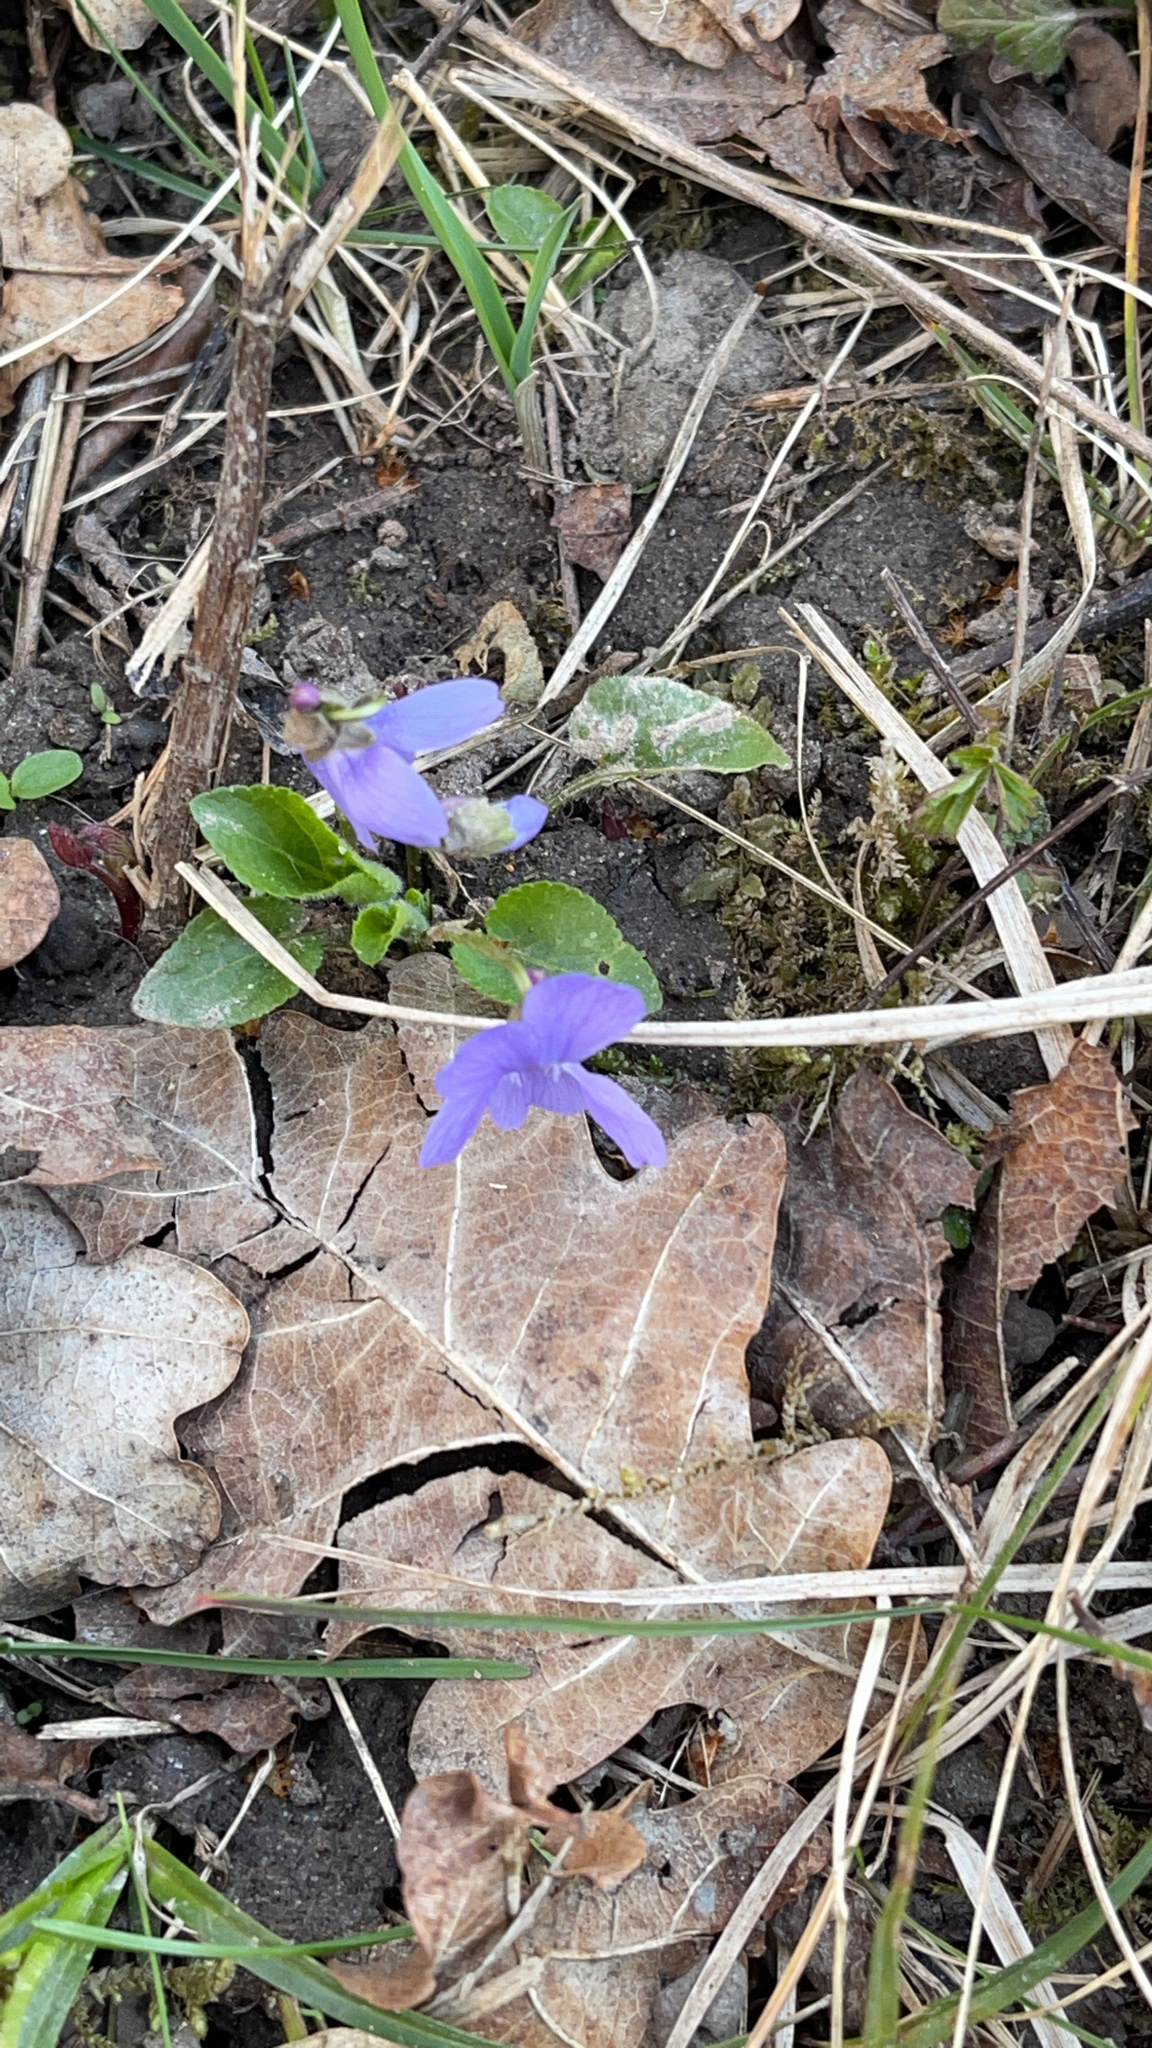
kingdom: Plantae
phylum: Tracheophyta
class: Magnoliopsida
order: Malpighiales
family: Violaceae
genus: Viola
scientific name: Viola hirta
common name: Hairy violet
